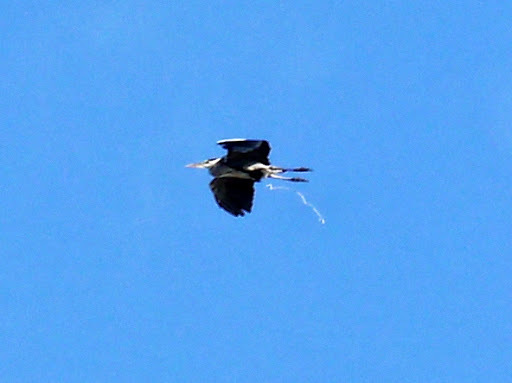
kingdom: Animalia
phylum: Chordata
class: Aves
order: Pelecaniformes
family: Ardeidae
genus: Ardea
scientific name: Ardea cinerea
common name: Grey heron
